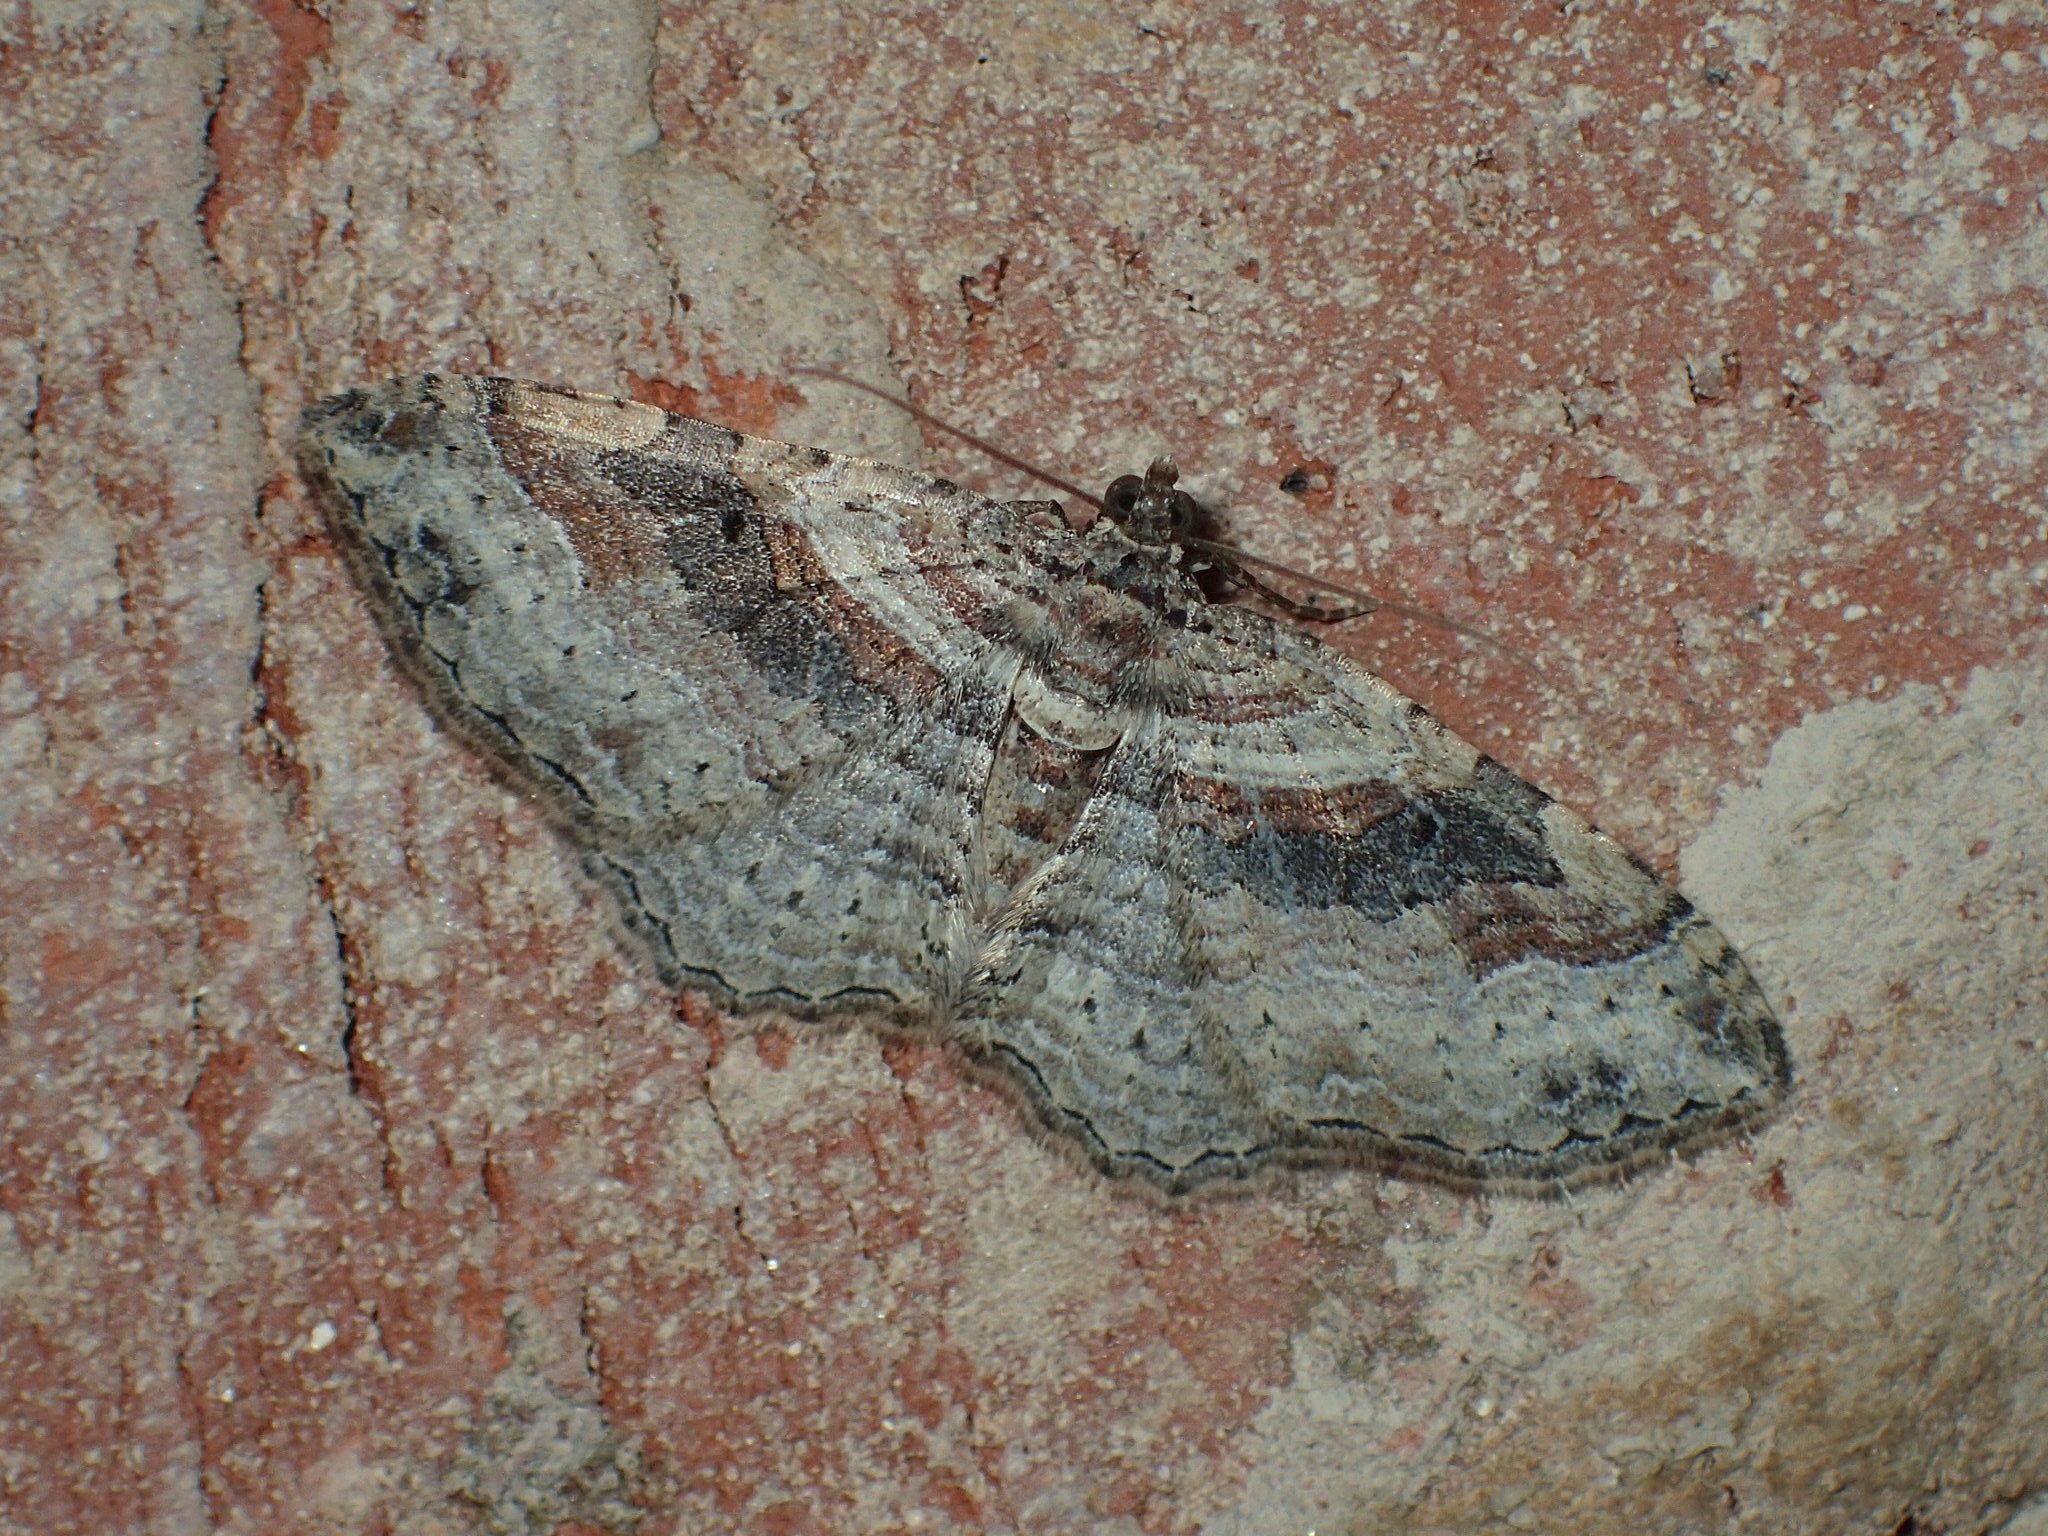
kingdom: Animalia
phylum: Arthropoda
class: Insecta
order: Lepidoptera
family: Geometridae
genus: Costaconvexa
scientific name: Costaconvexa centrostrigaria
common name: Bent-line carpet
